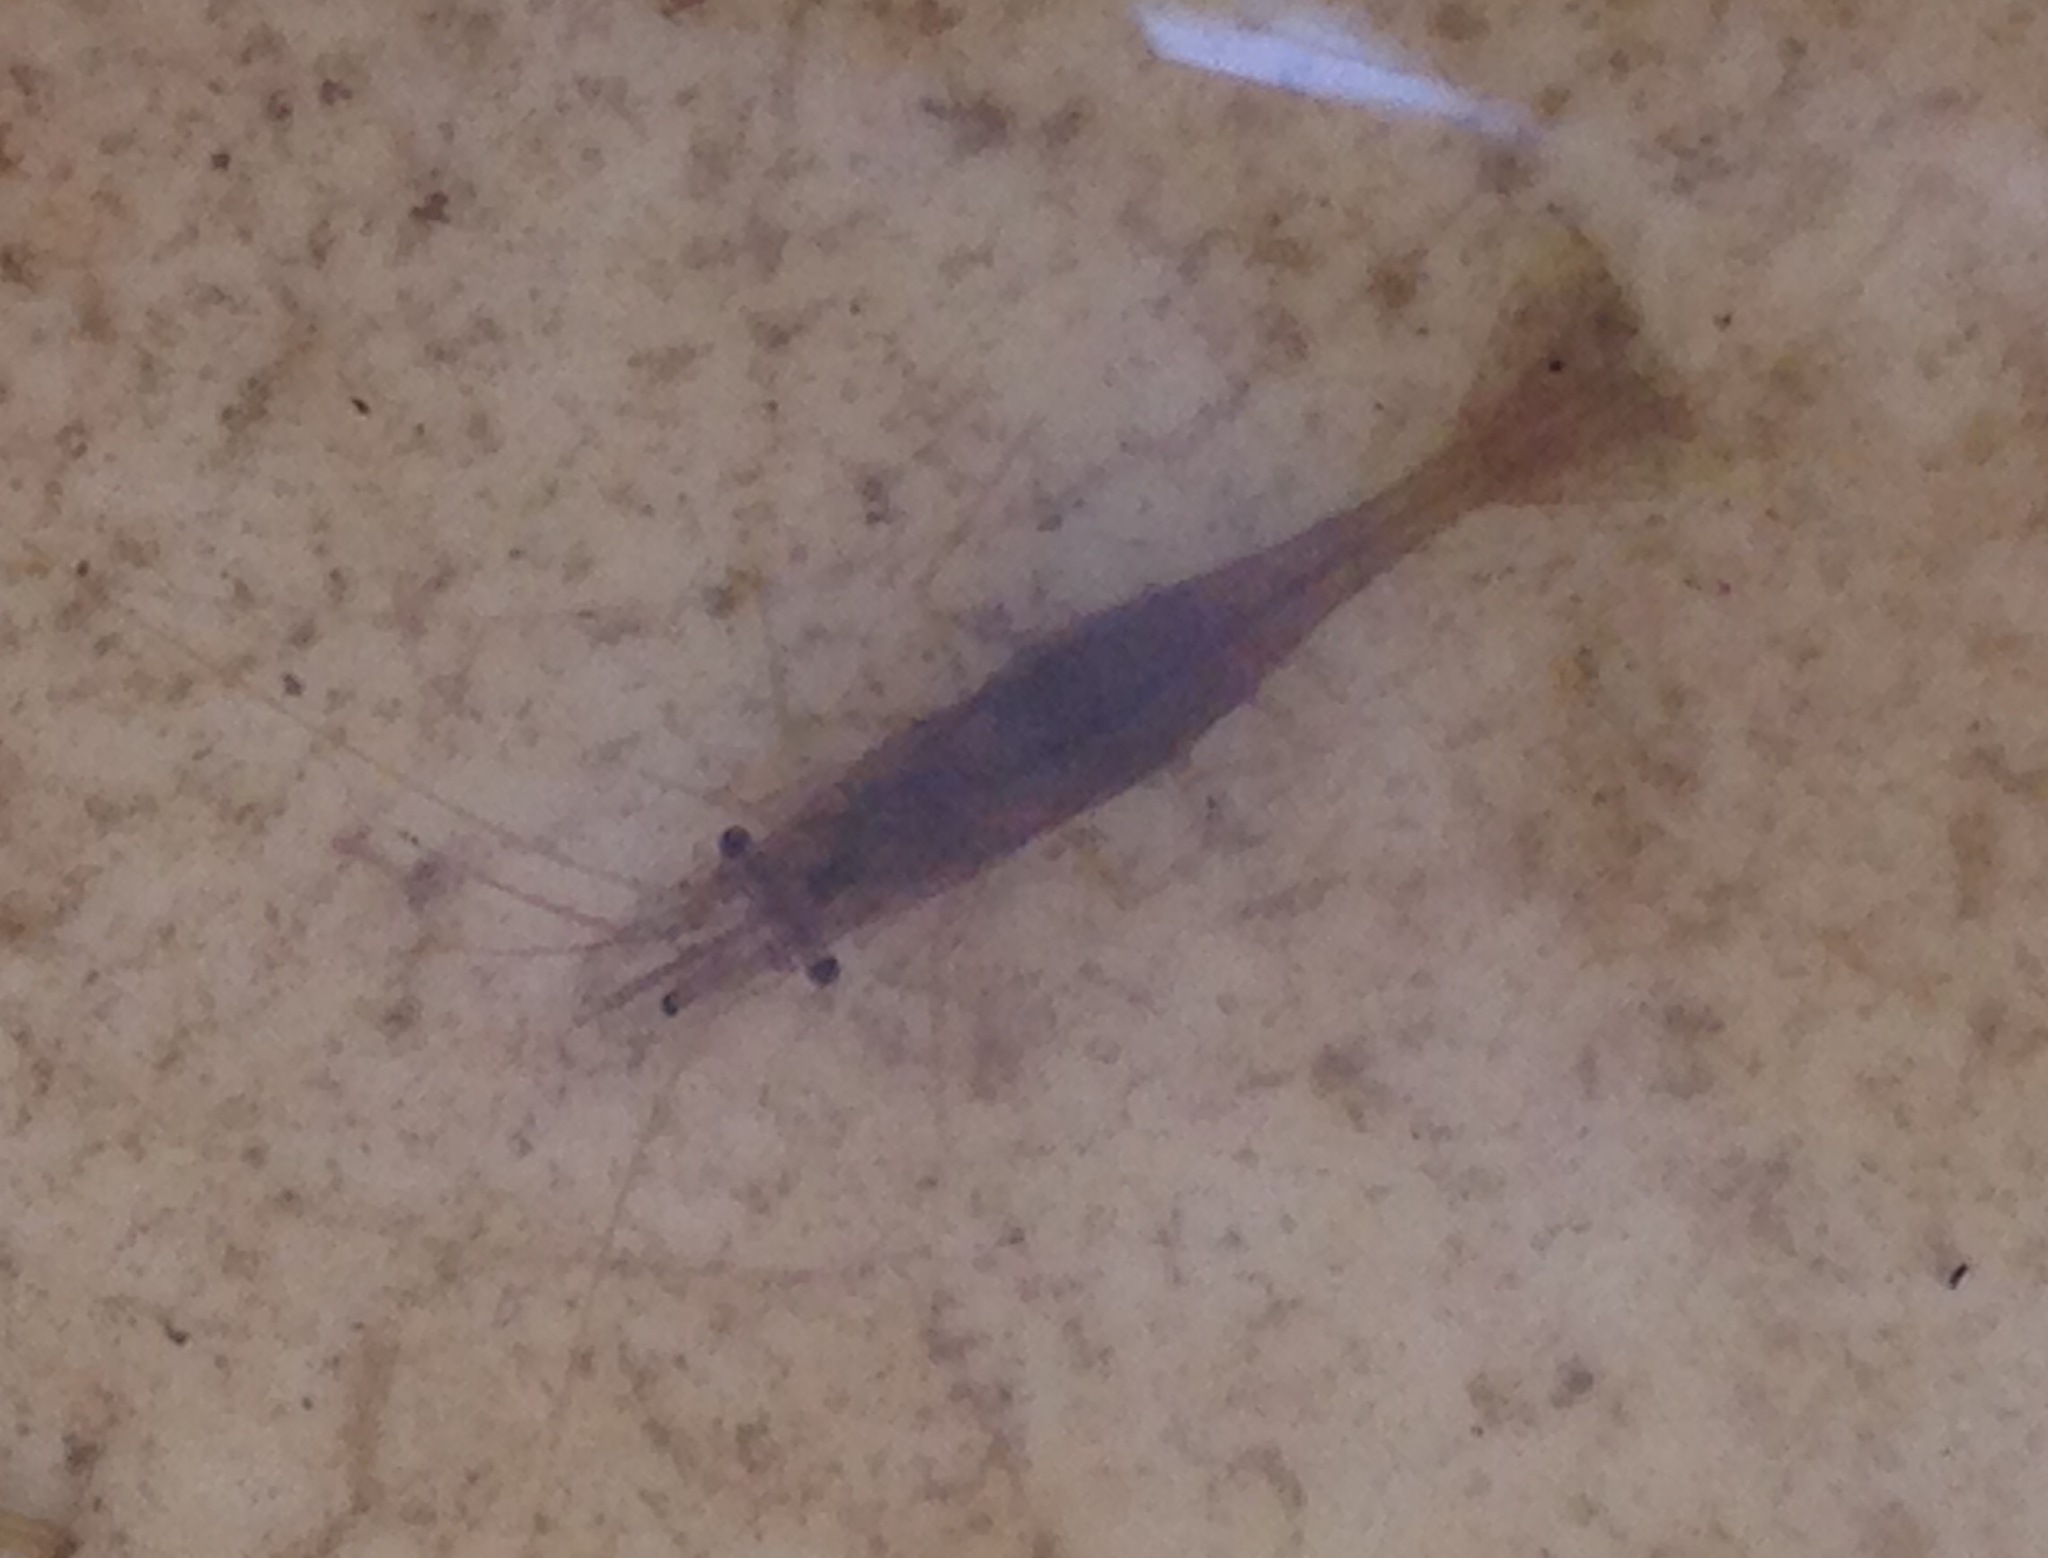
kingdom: Animalia
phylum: Arthropoda
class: Malacostraca
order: Decapoda
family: Atyidae
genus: Syncaris
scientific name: Syncaris pacifica
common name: California freshwater shrimp
